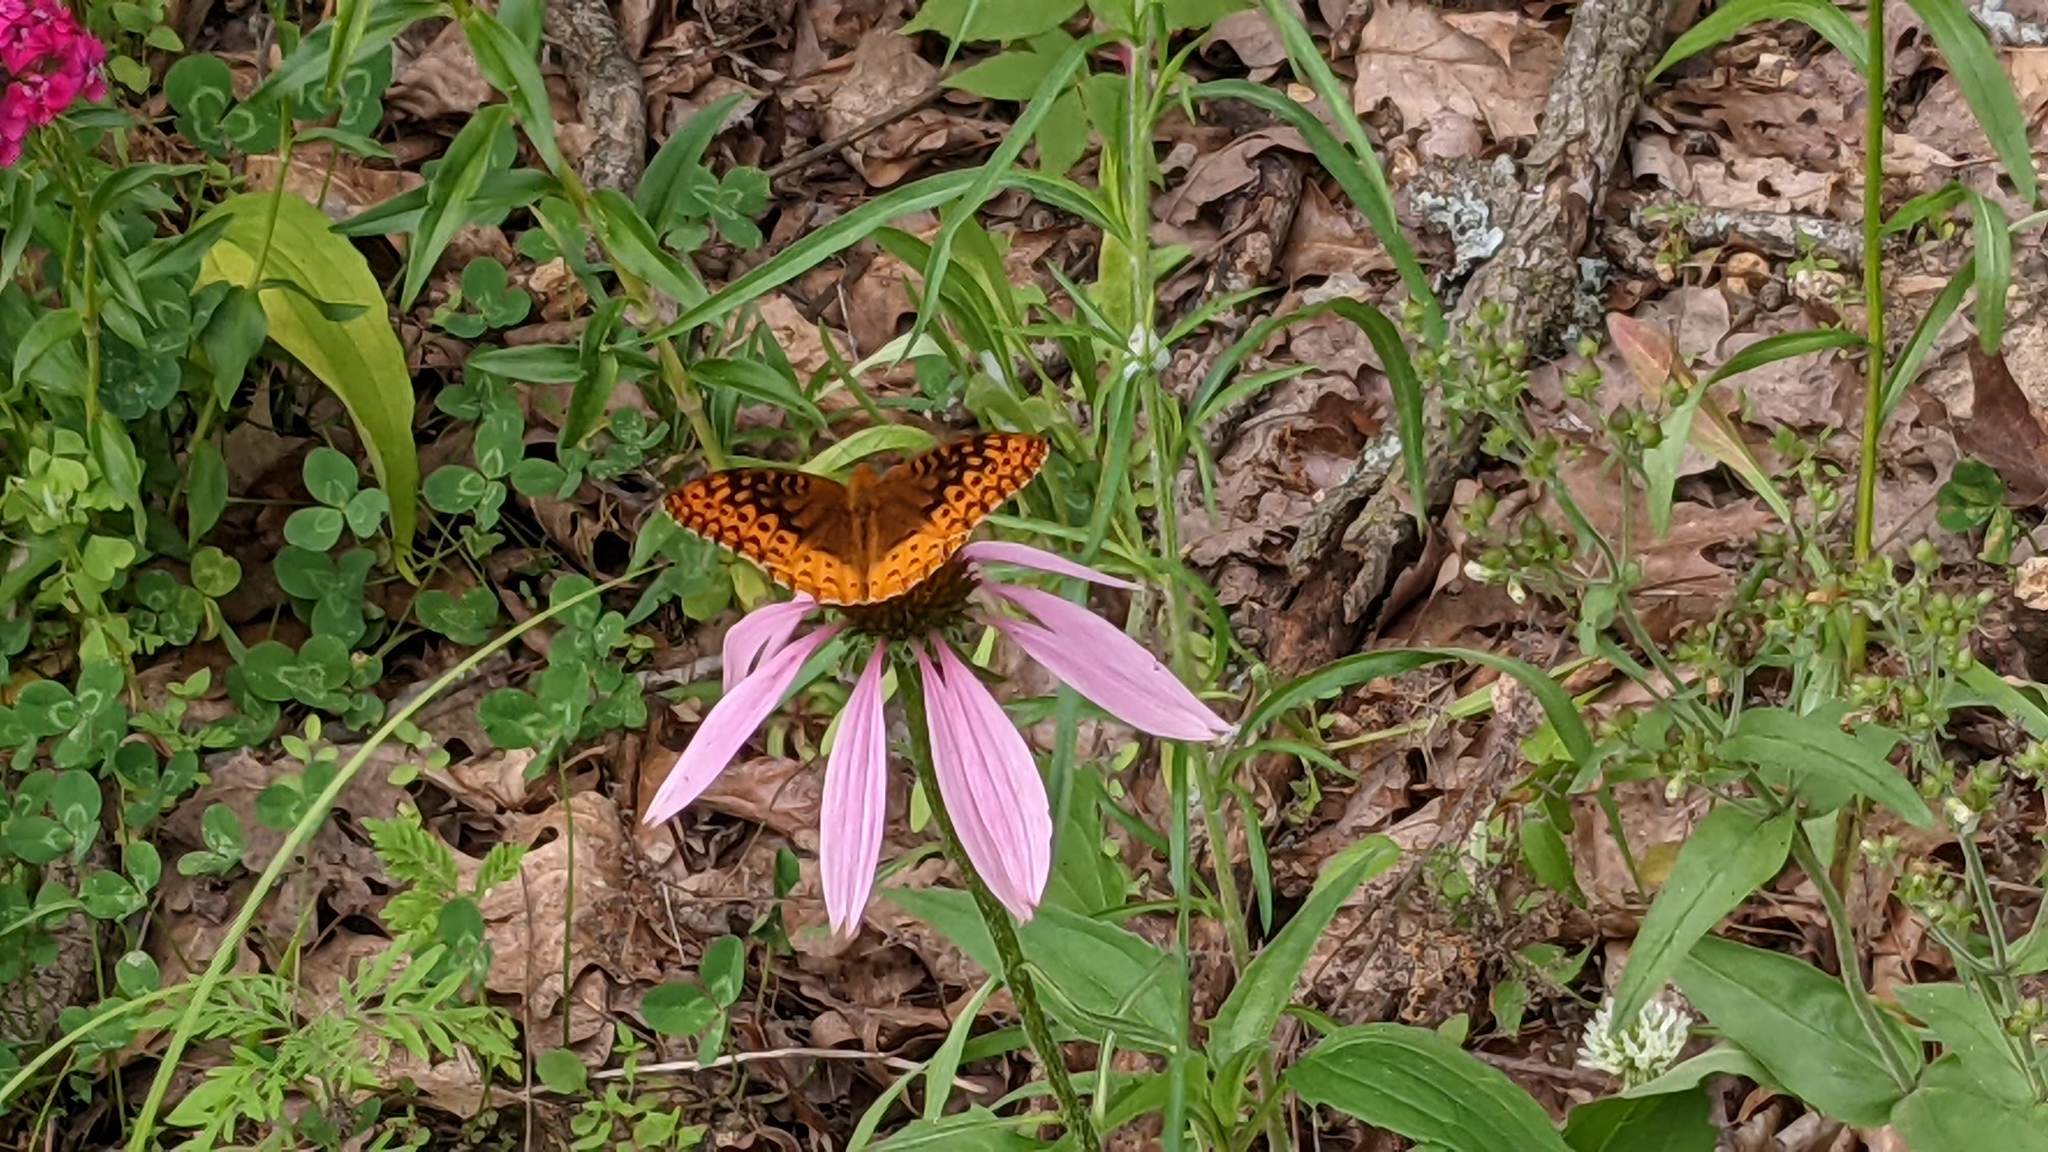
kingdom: Animalia
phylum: Arthropoda
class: Insecta
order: Lepidoptera
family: Nymphalidae
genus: Speyeria
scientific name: Speyeria cybele
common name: Great spangled fritillary
